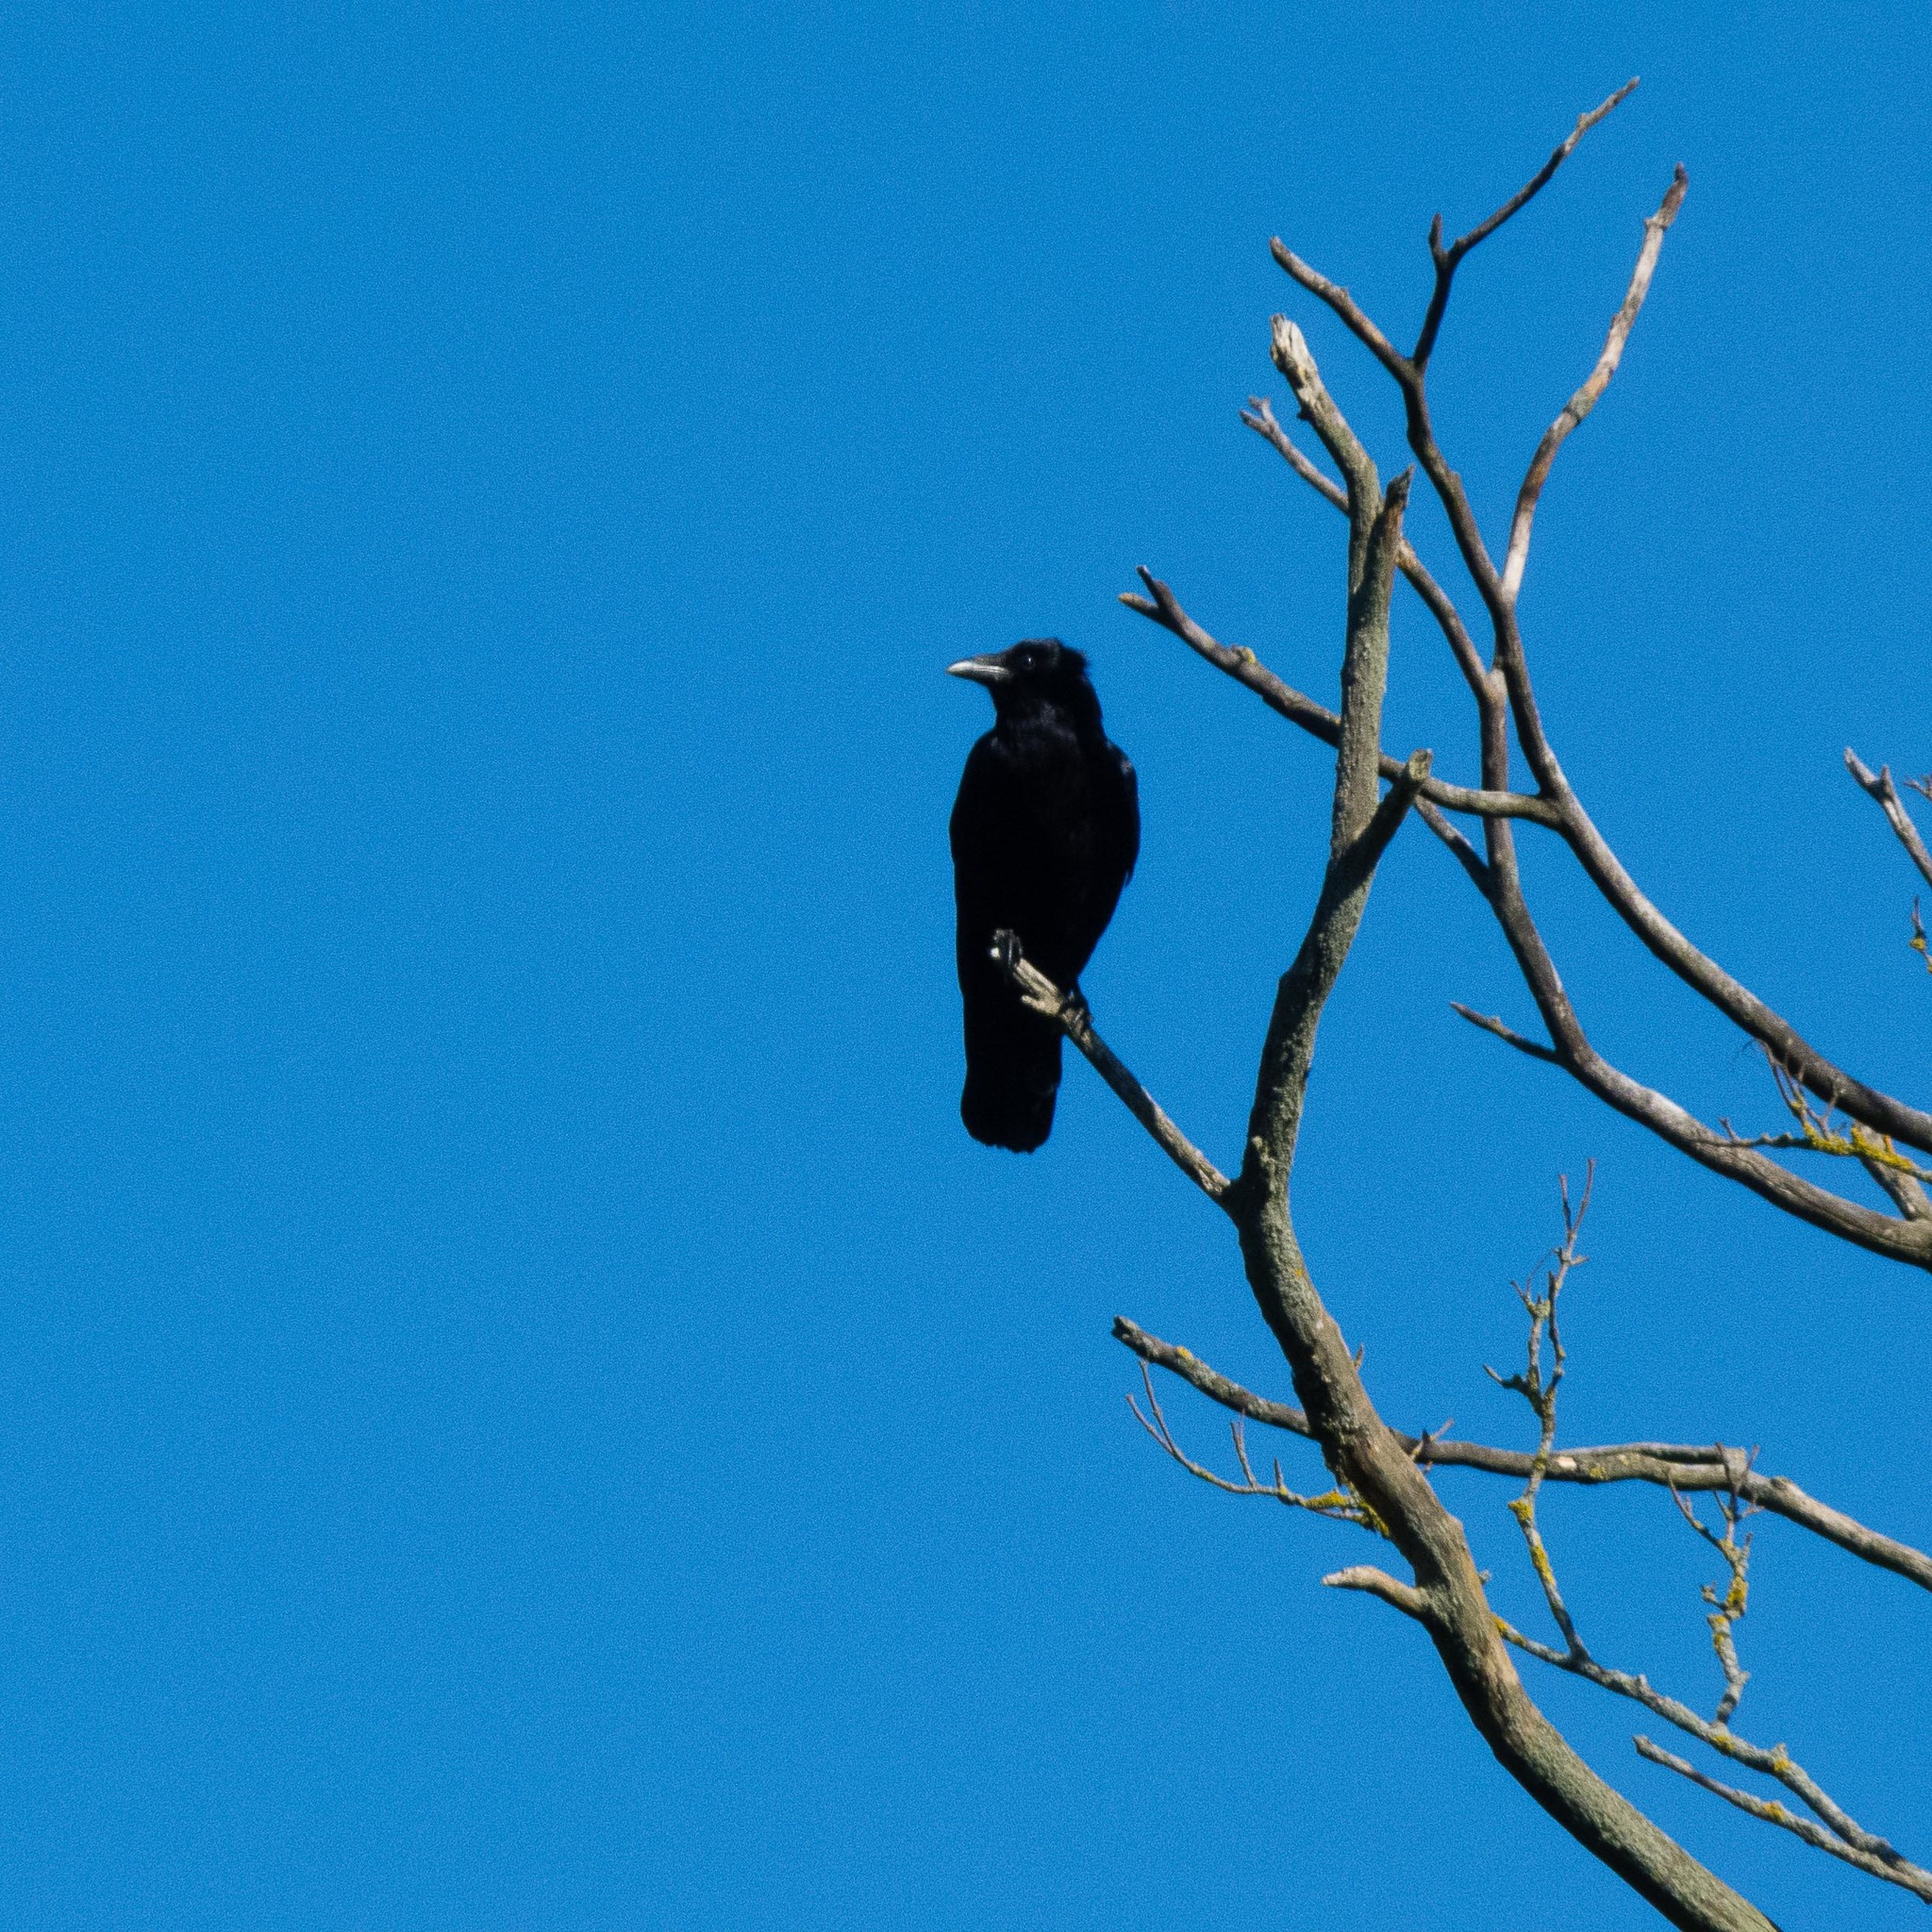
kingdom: Animalia
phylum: Chordata
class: Aves
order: Passeriformes
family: Corvidae
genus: Corvus
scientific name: Corvus corone
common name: Carrion crow
